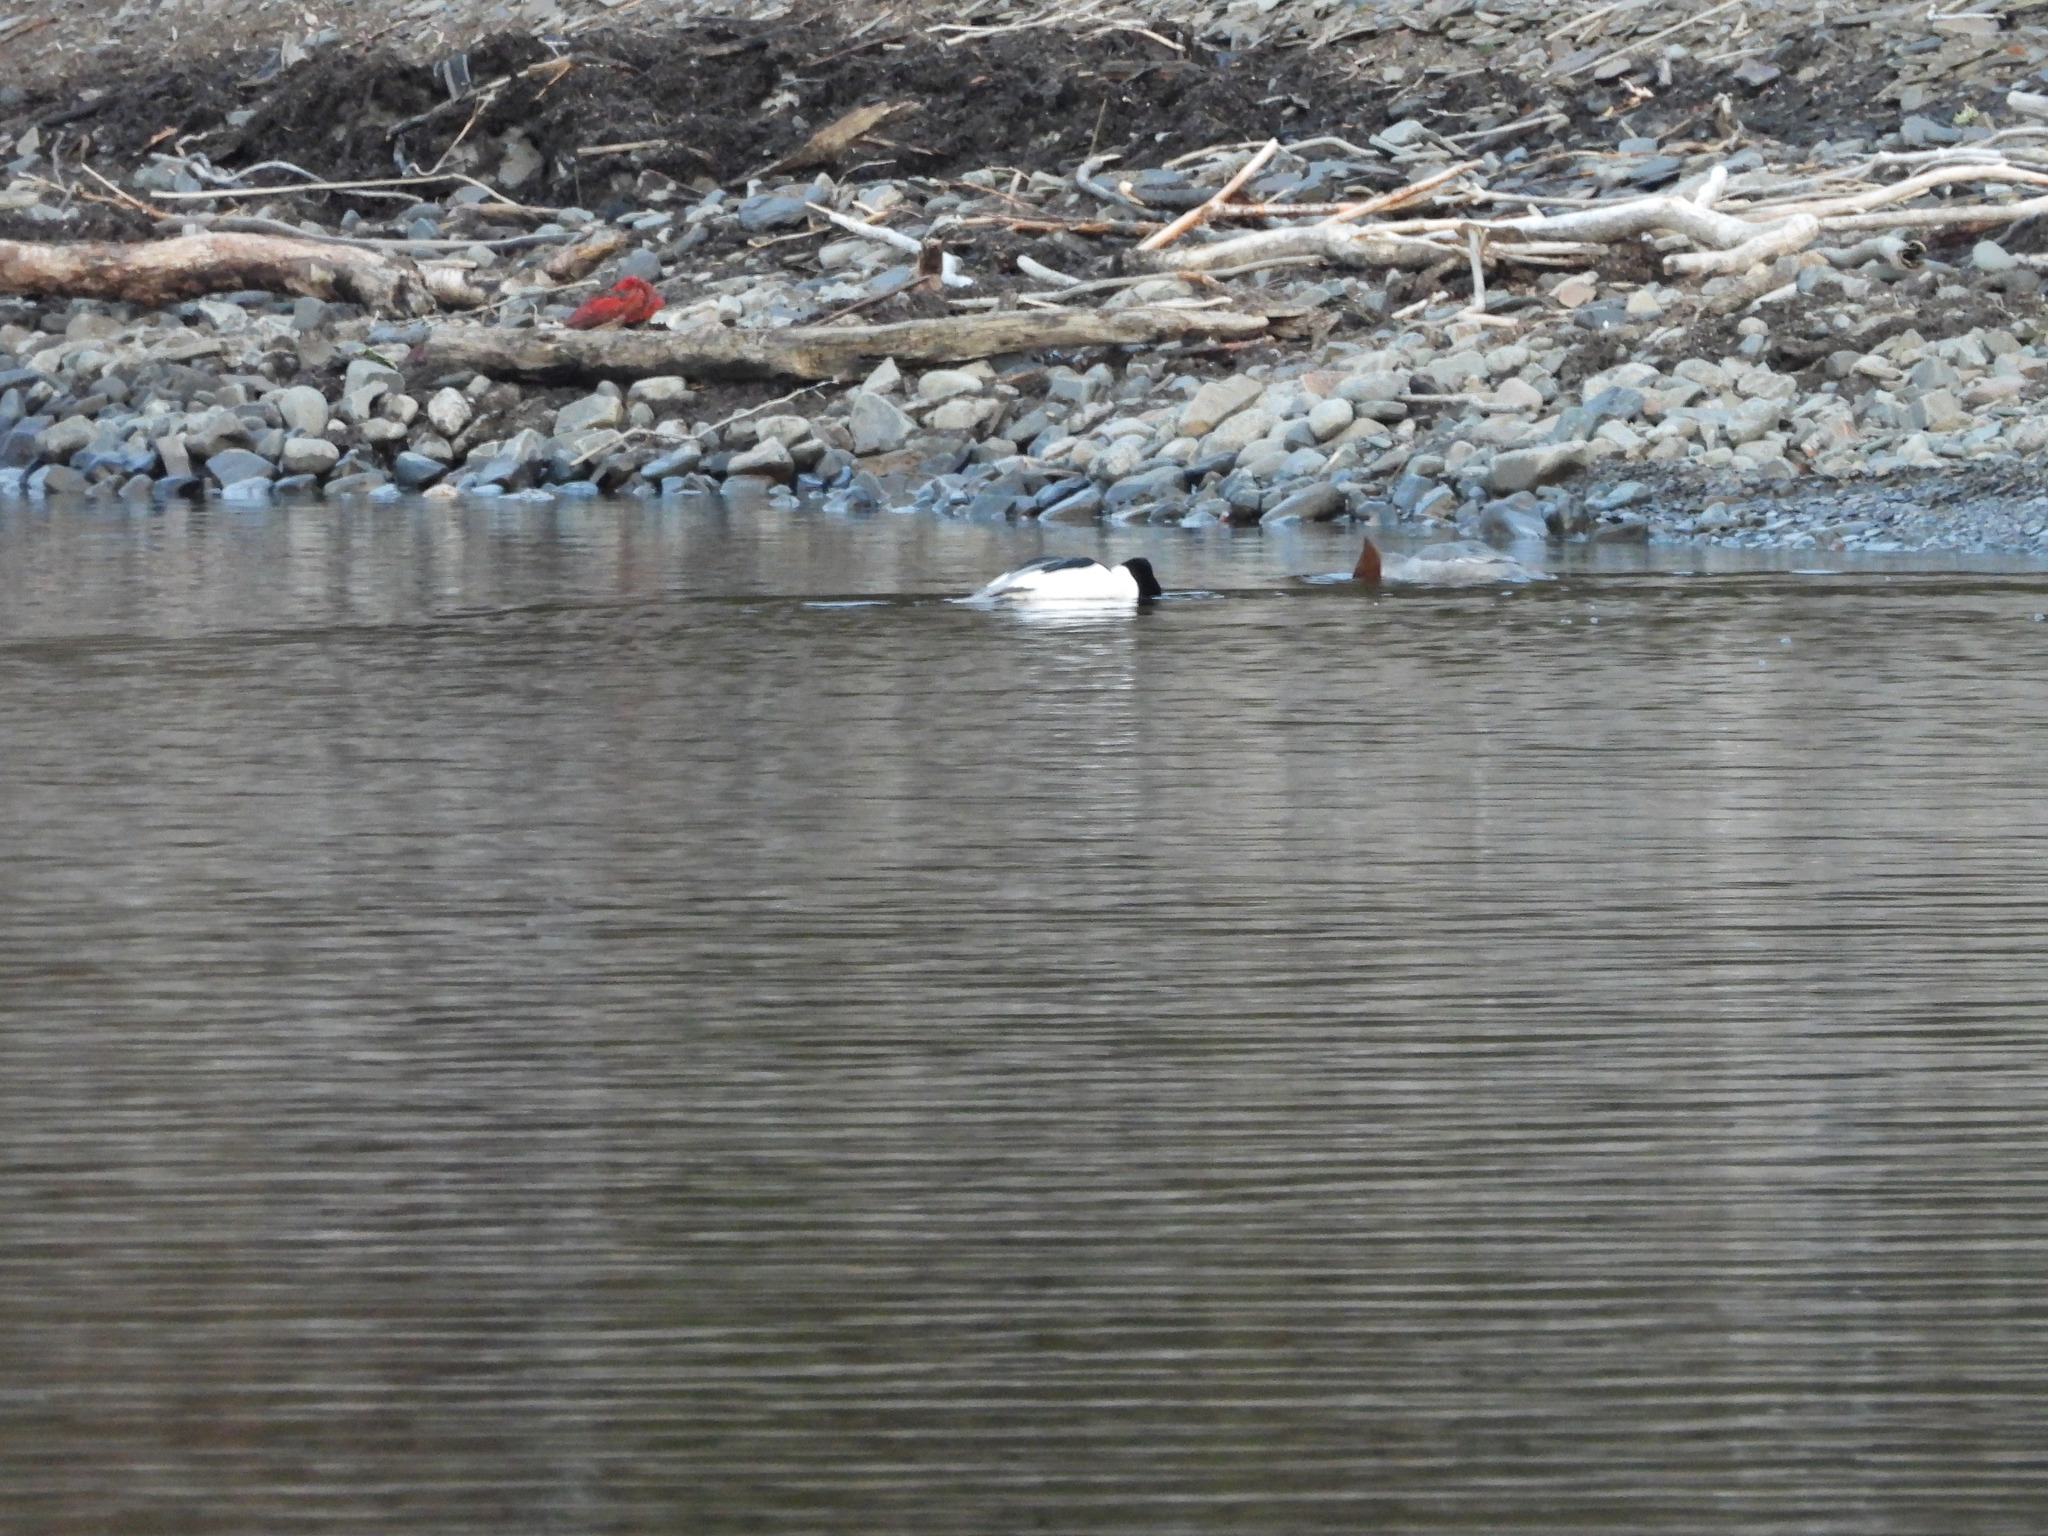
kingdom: Animalia
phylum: Chordata
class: Aves
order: Anseriformes
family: Anatidae
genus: Mergus
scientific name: Mergus merganser
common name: Common merganser
